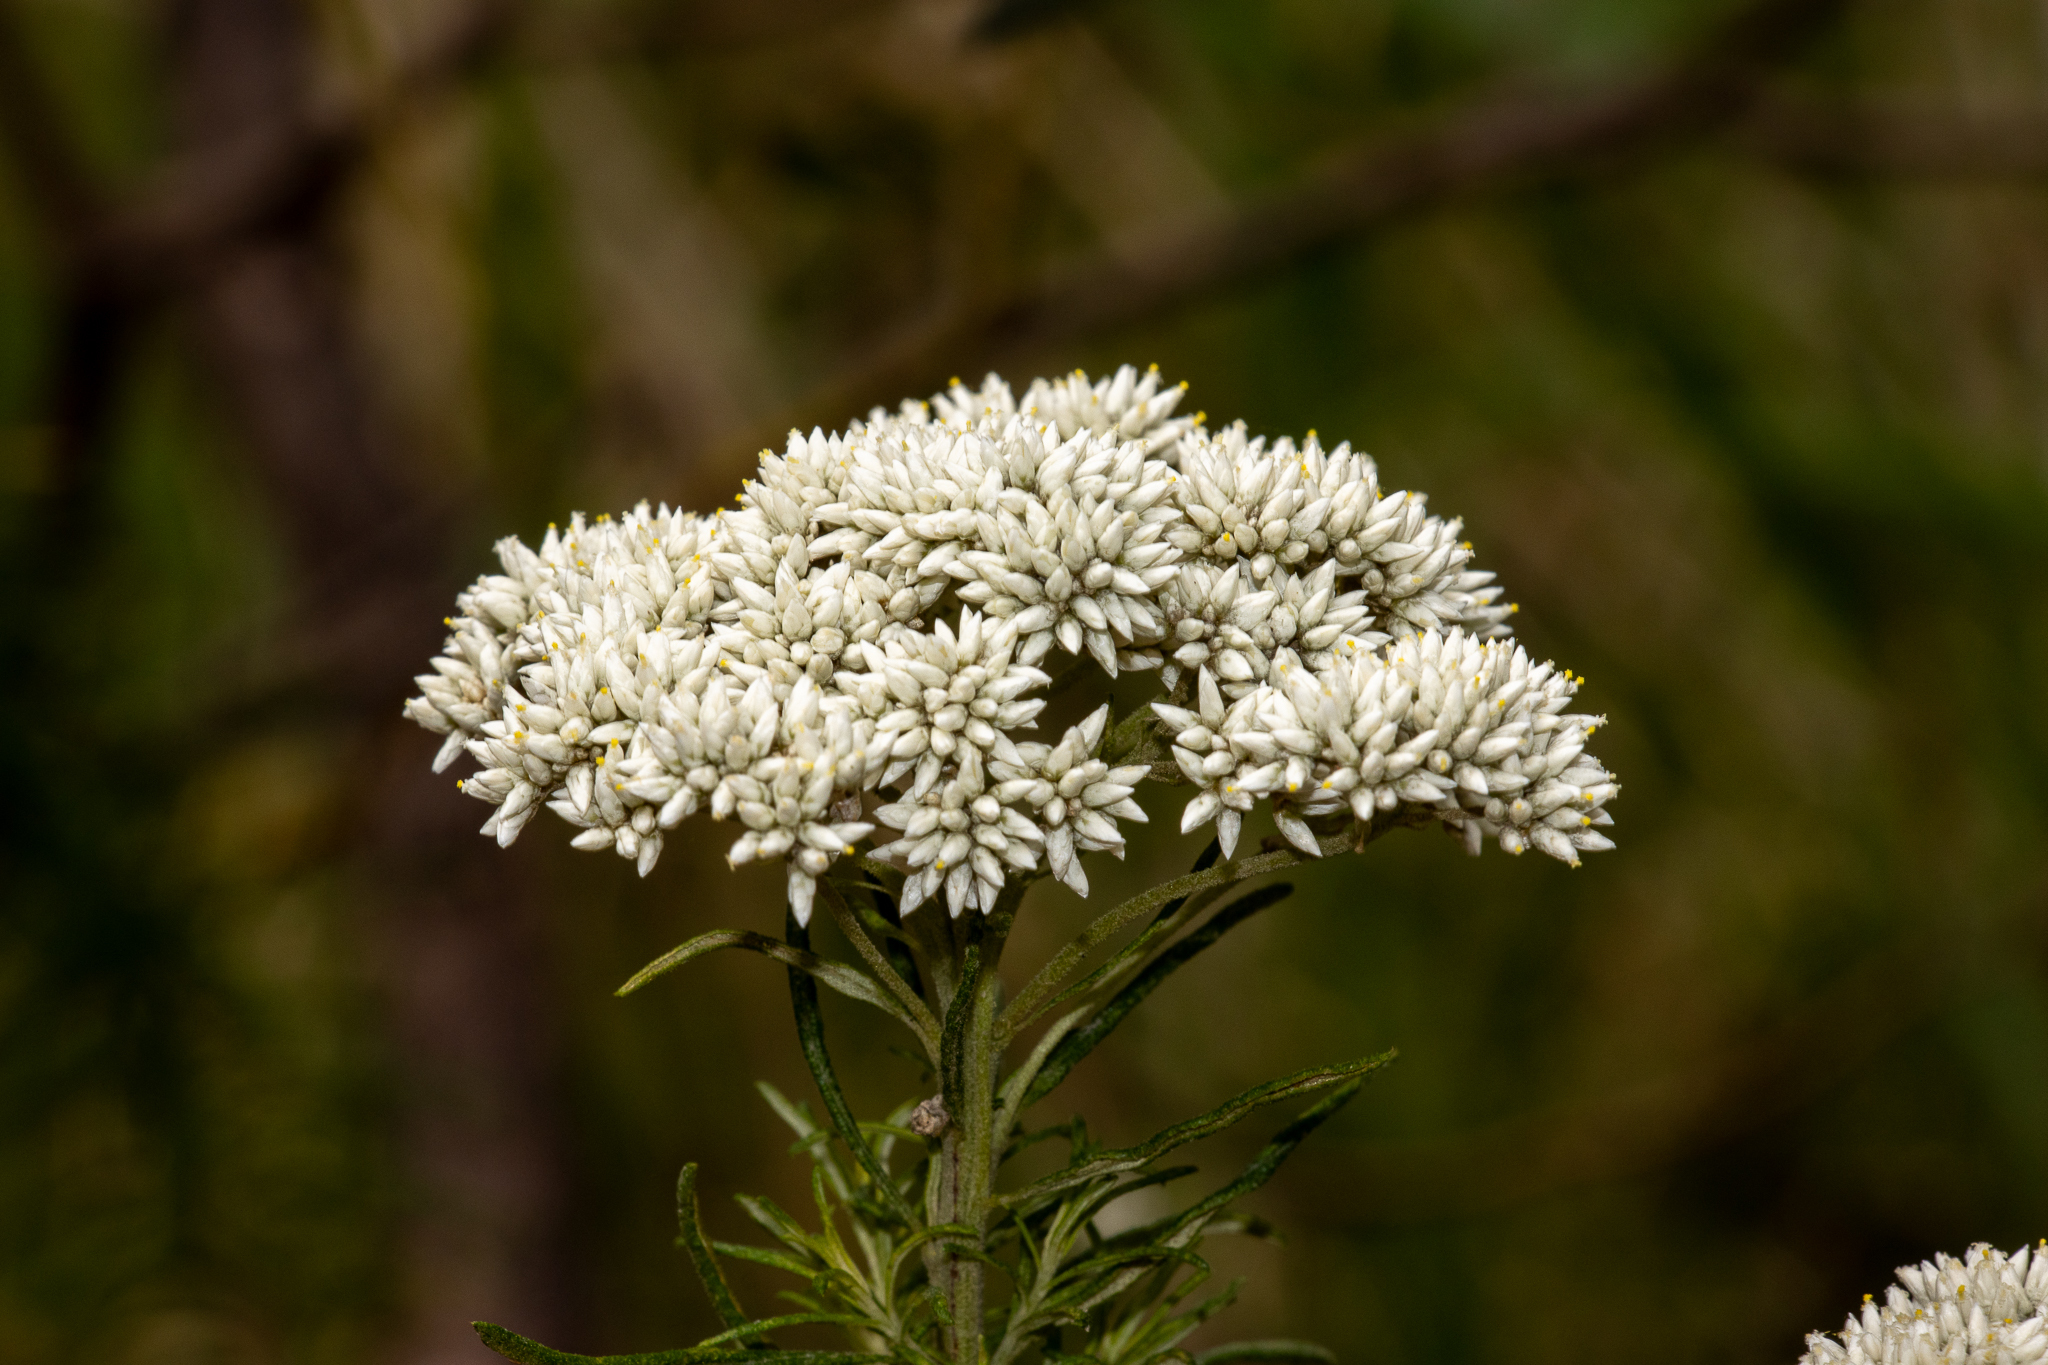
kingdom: Plantae
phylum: Tracheophyta
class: Magnoliopsida
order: Asterales
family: Asteraceae
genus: Cassinia
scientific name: Cassinia aculeata
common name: Australian tauhinu
